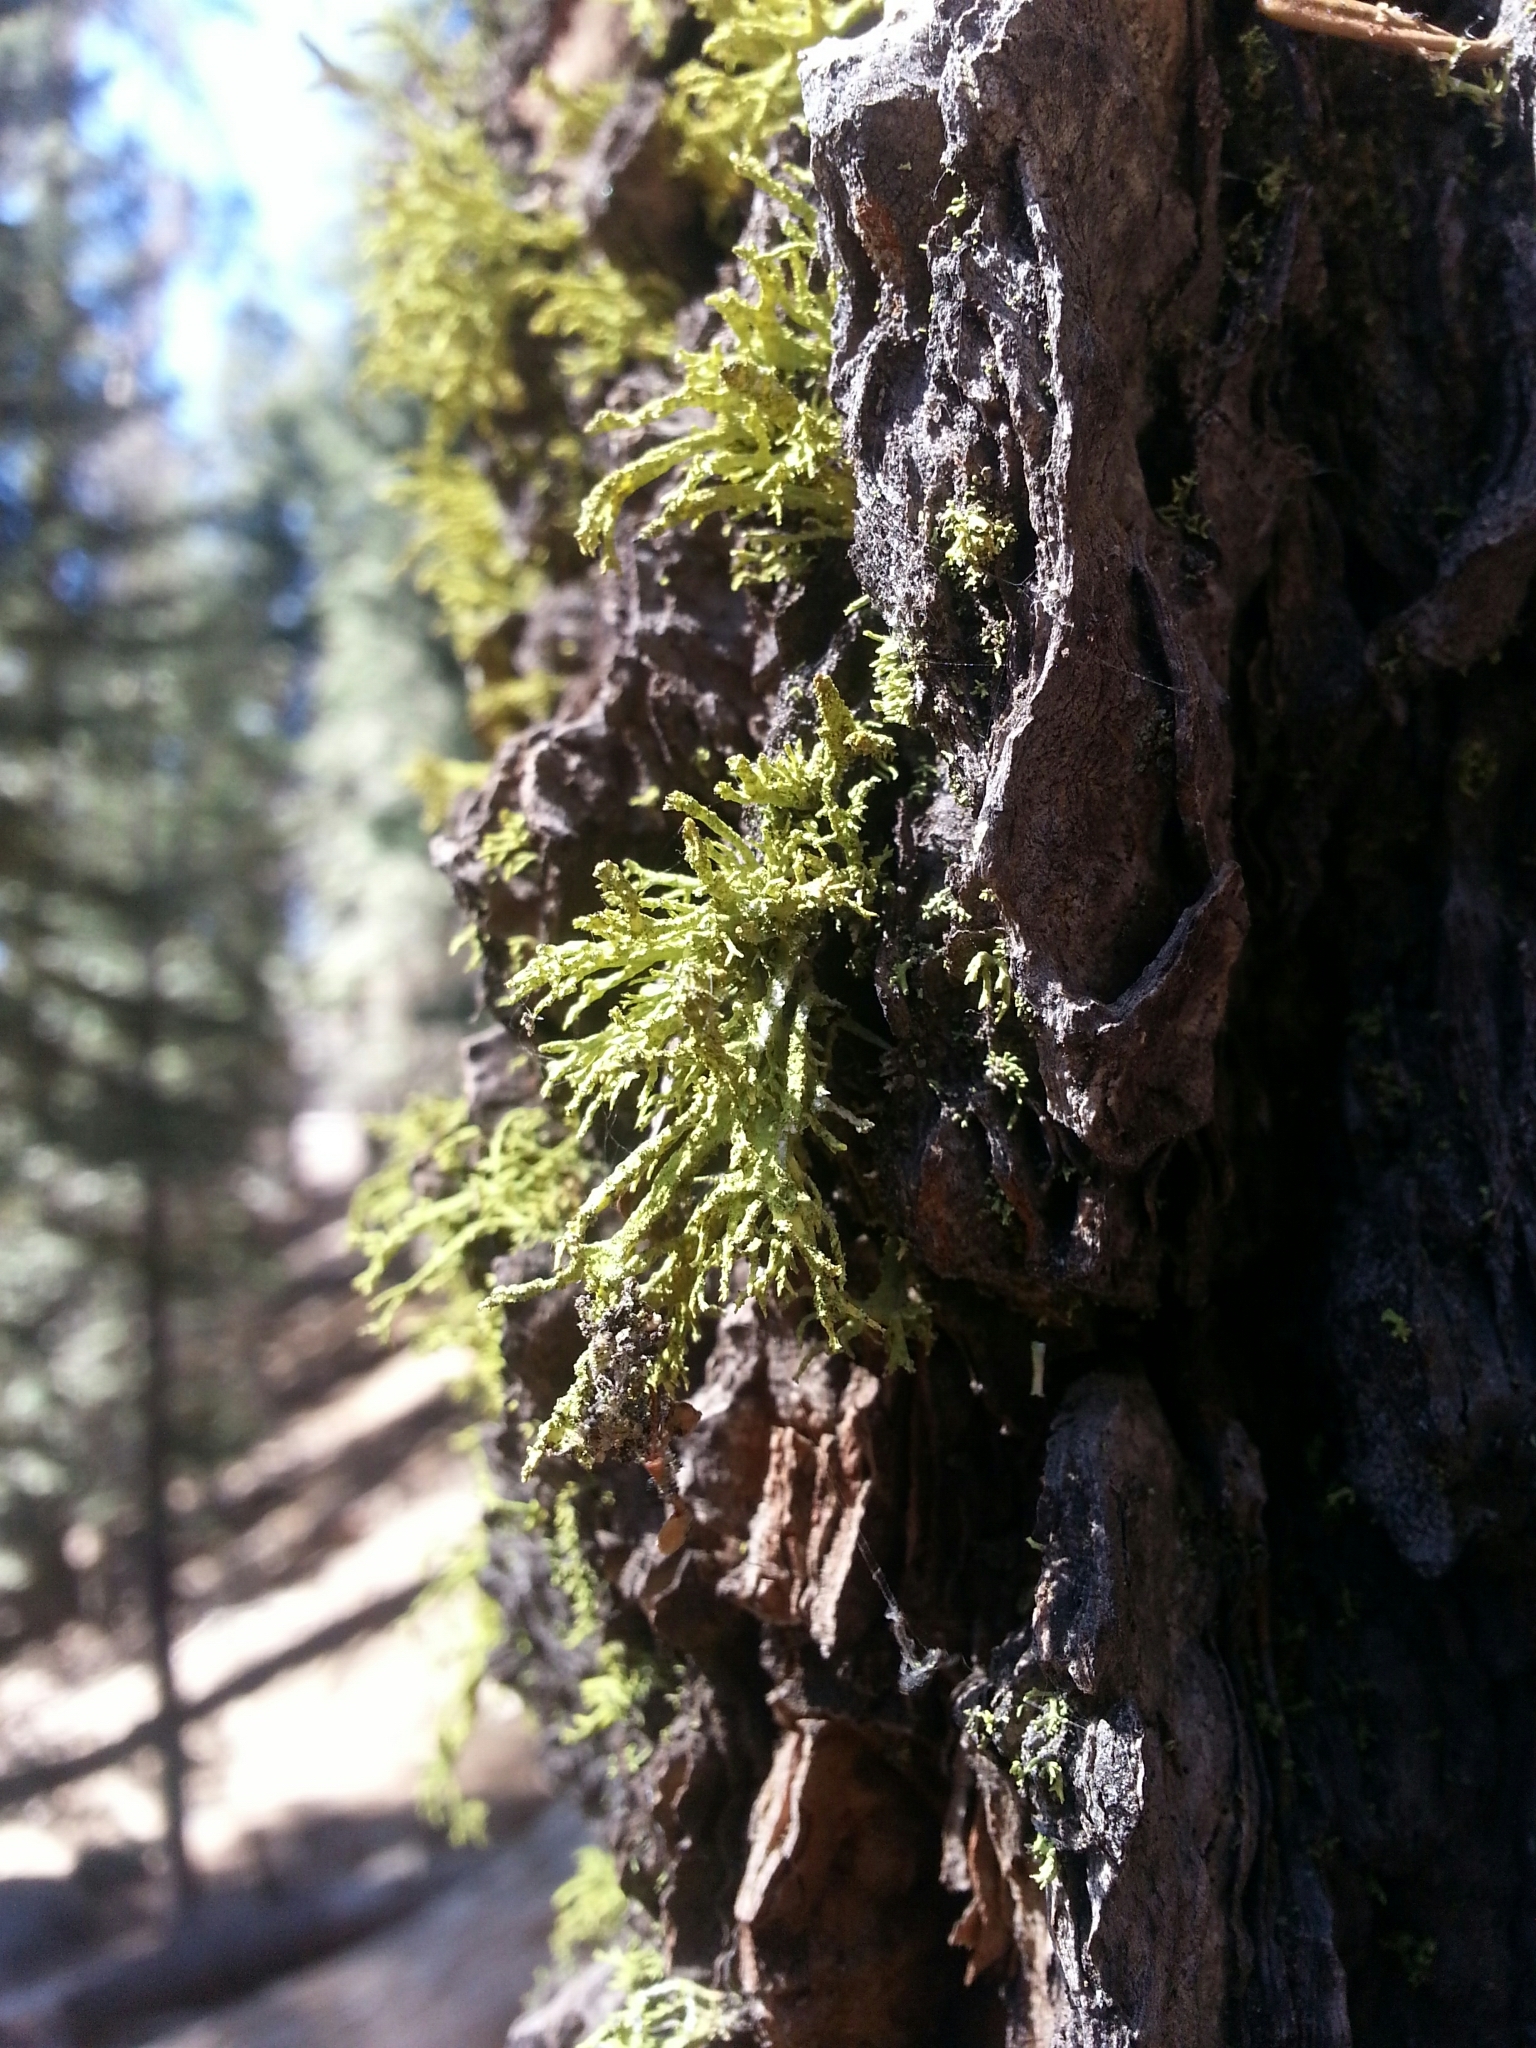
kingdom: Fungi
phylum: Ascomycota
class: Lecanoromycetes
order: Lecanorales
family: Parmeliaceae
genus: Letharia
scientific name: Letharia vulpina
